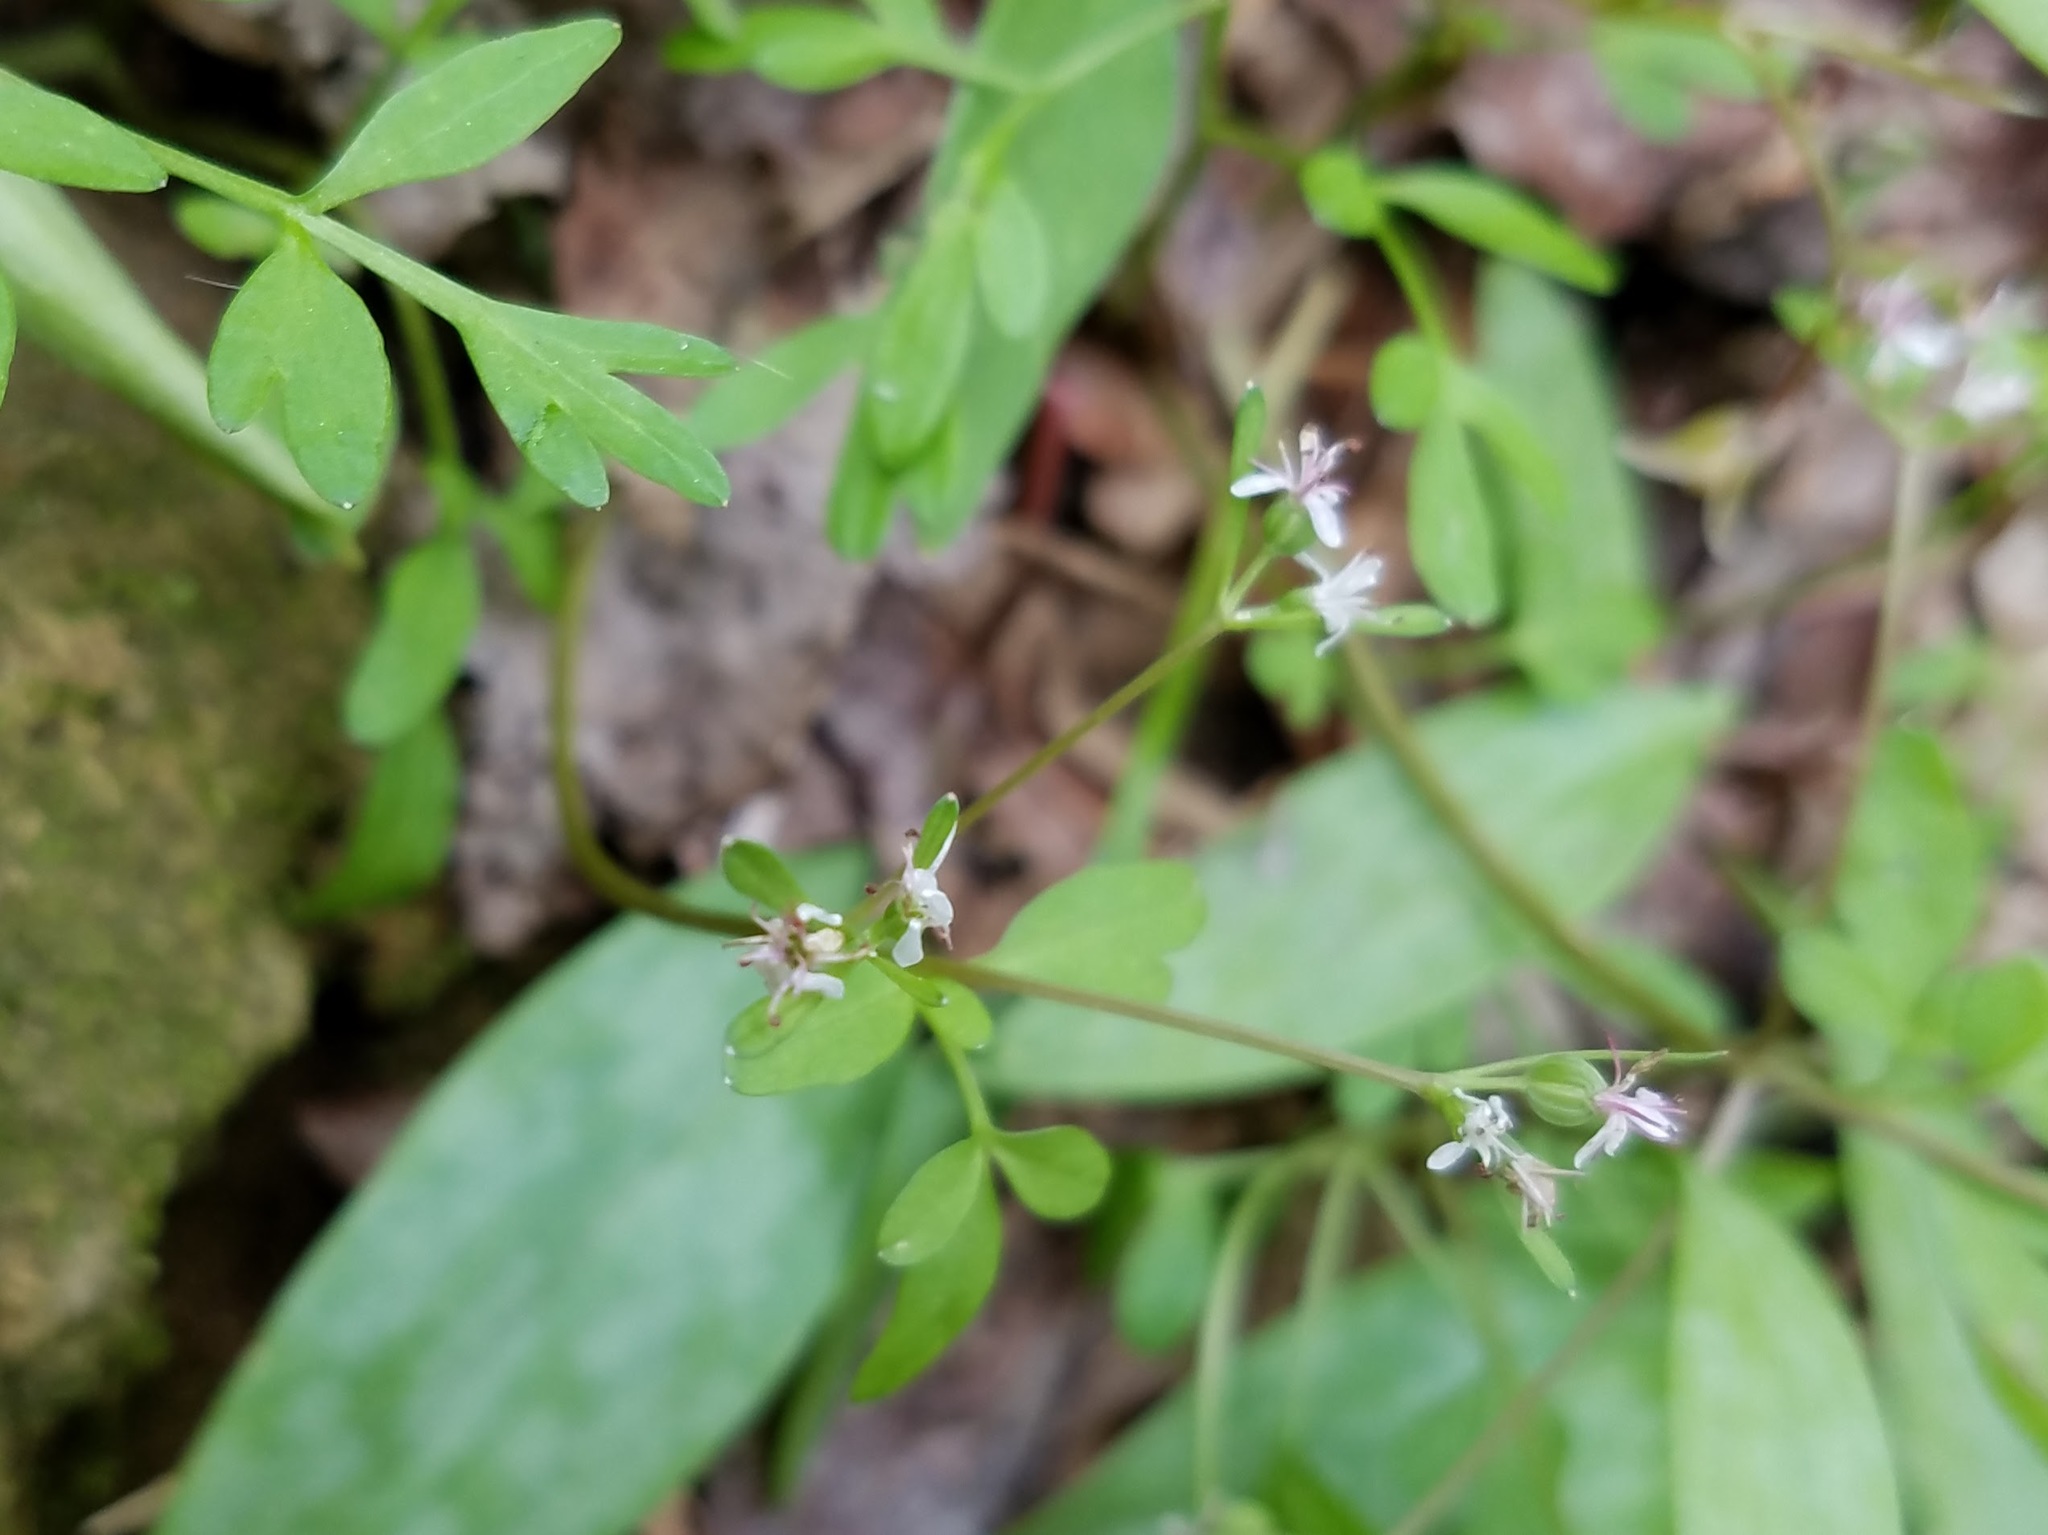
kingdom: Plantae
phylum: Tracheophyta
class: Magnoliopsida
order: Apiales
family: Apiaceae
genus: Erigenia
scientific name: Erigenia bulbosa
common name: Pepper-and-salt
